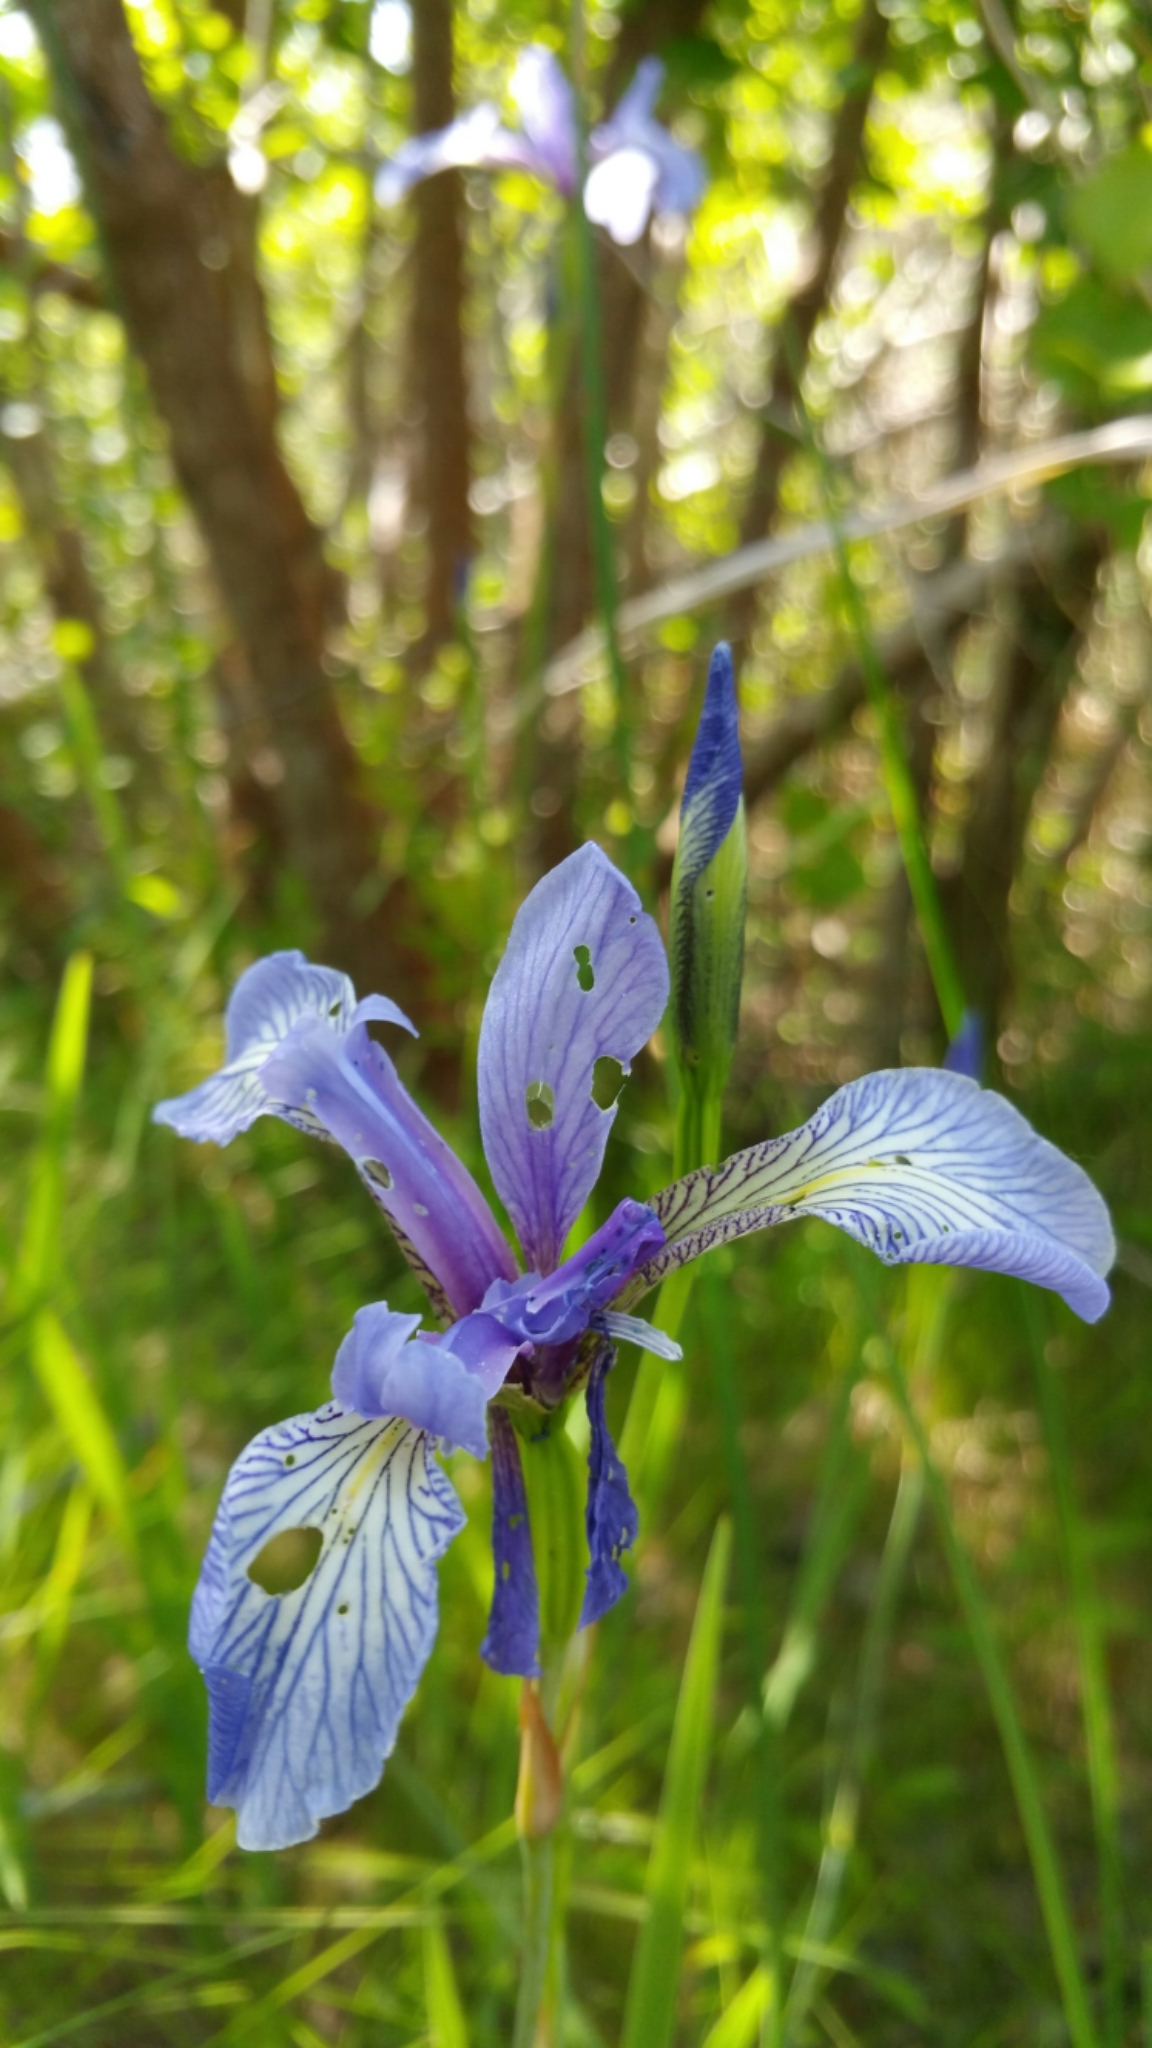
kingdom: Plantae
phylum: Tracheophyta
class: Liliopsida
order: Asparagales
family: Iridaceae
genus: Iris
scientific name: Iris versicolor
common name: Purple iris
